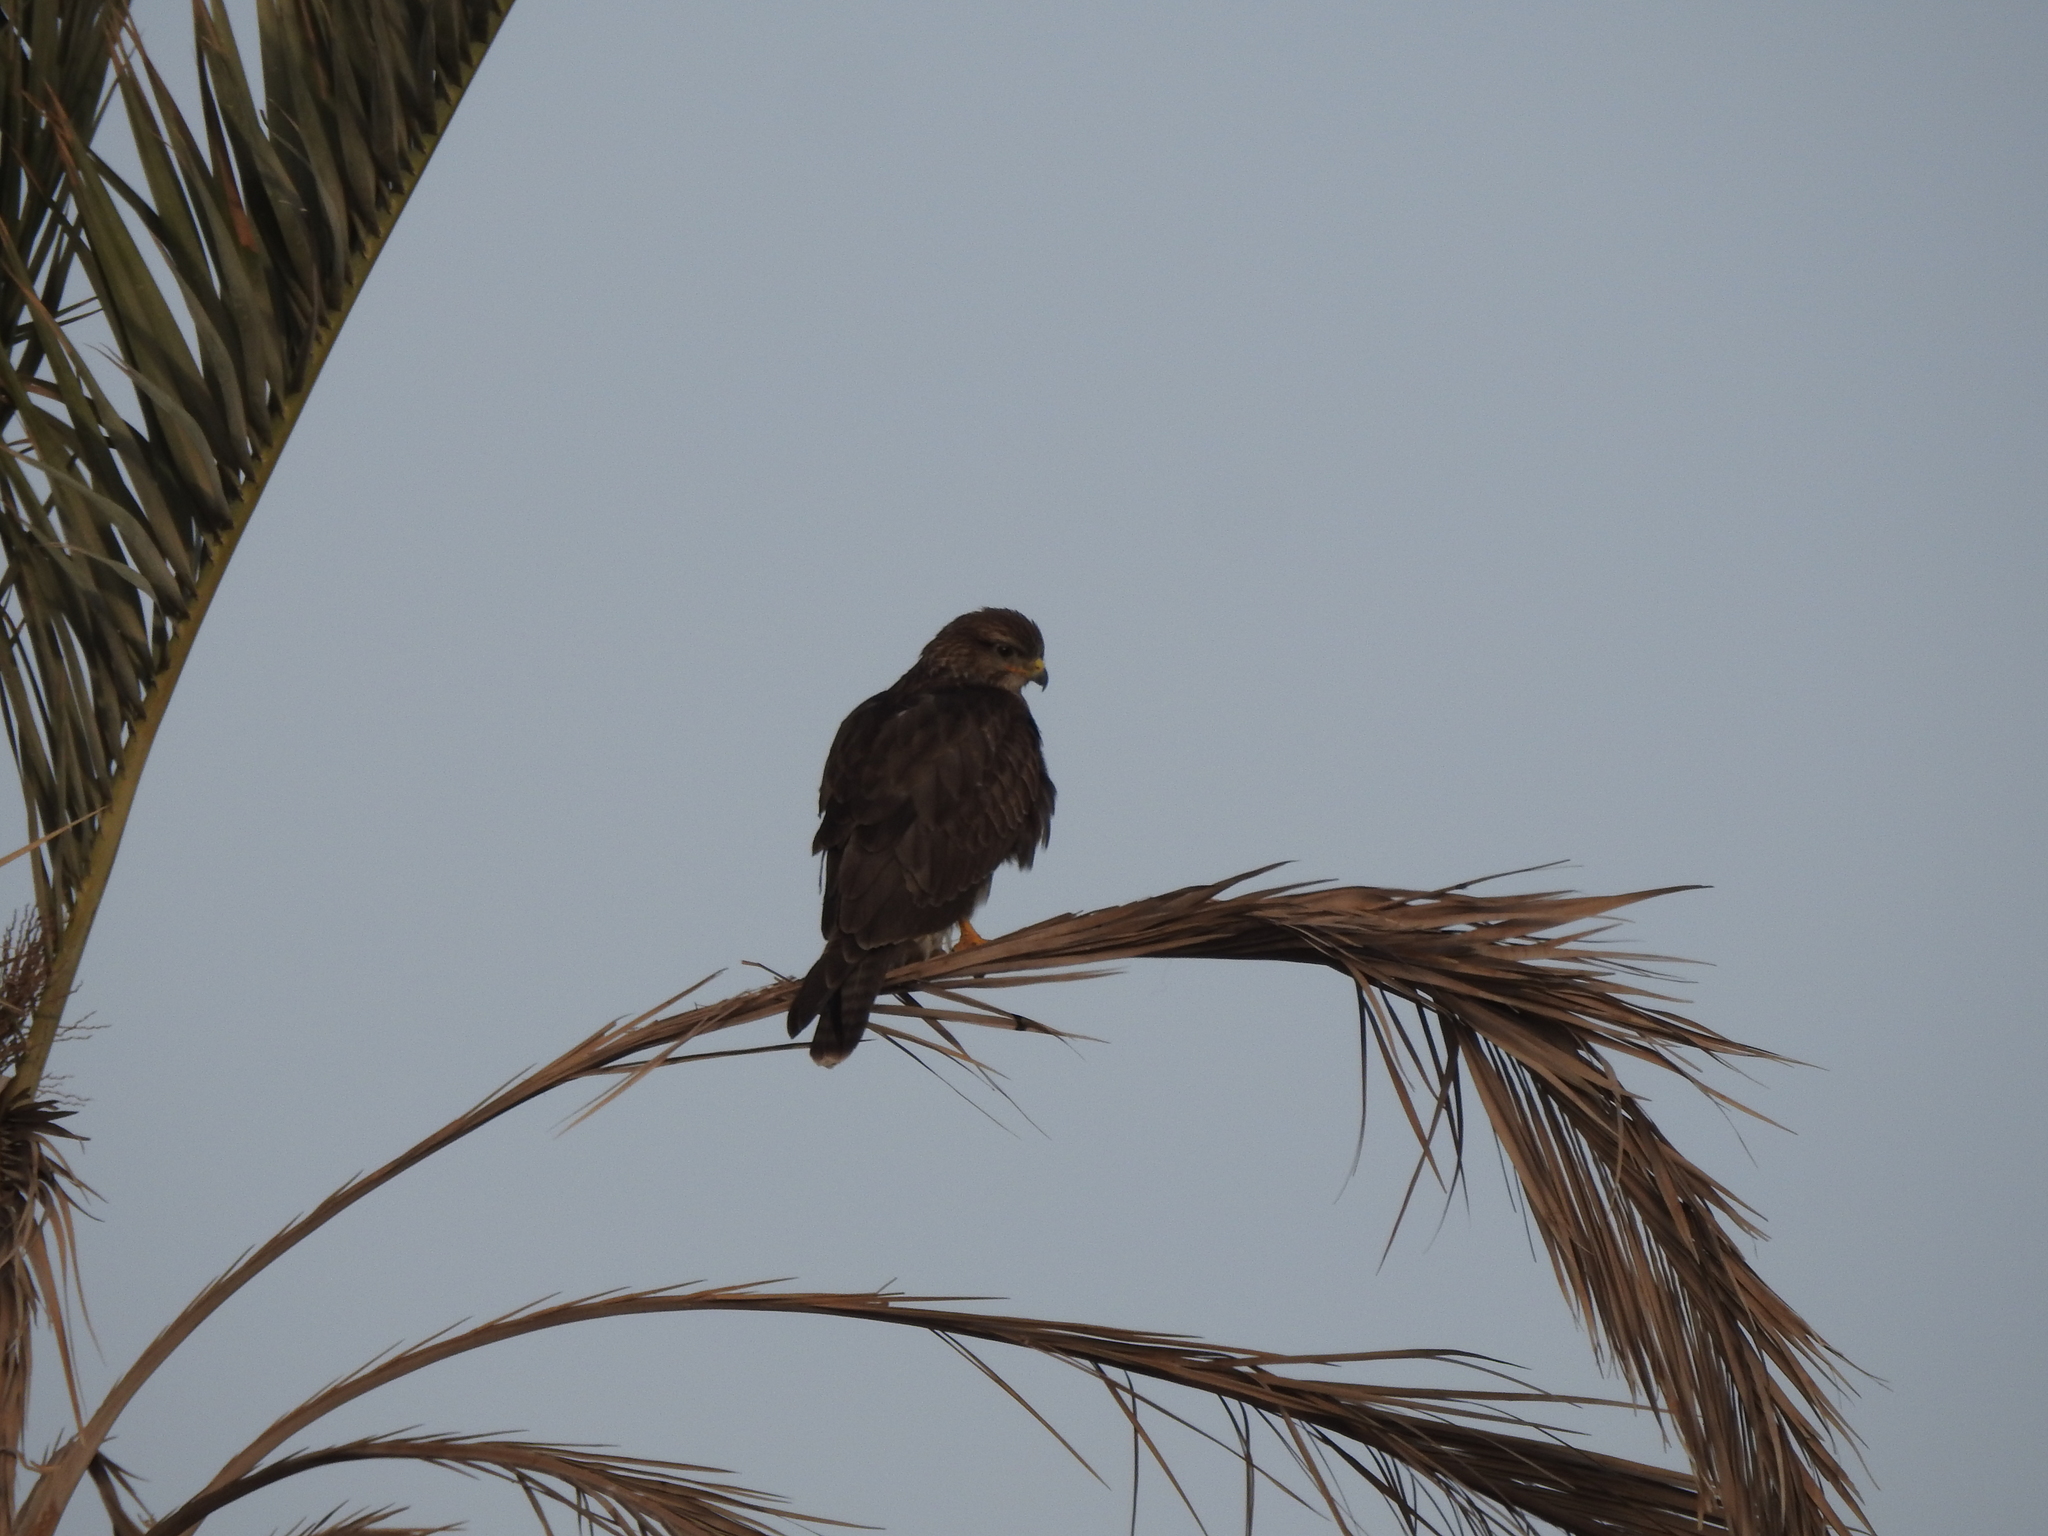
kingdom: Animalia
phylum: Chordata
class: Aves
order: Accipitriformes
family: Accipitridae
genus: Buteo
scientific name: Buteo buteo
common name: Common buzzard
